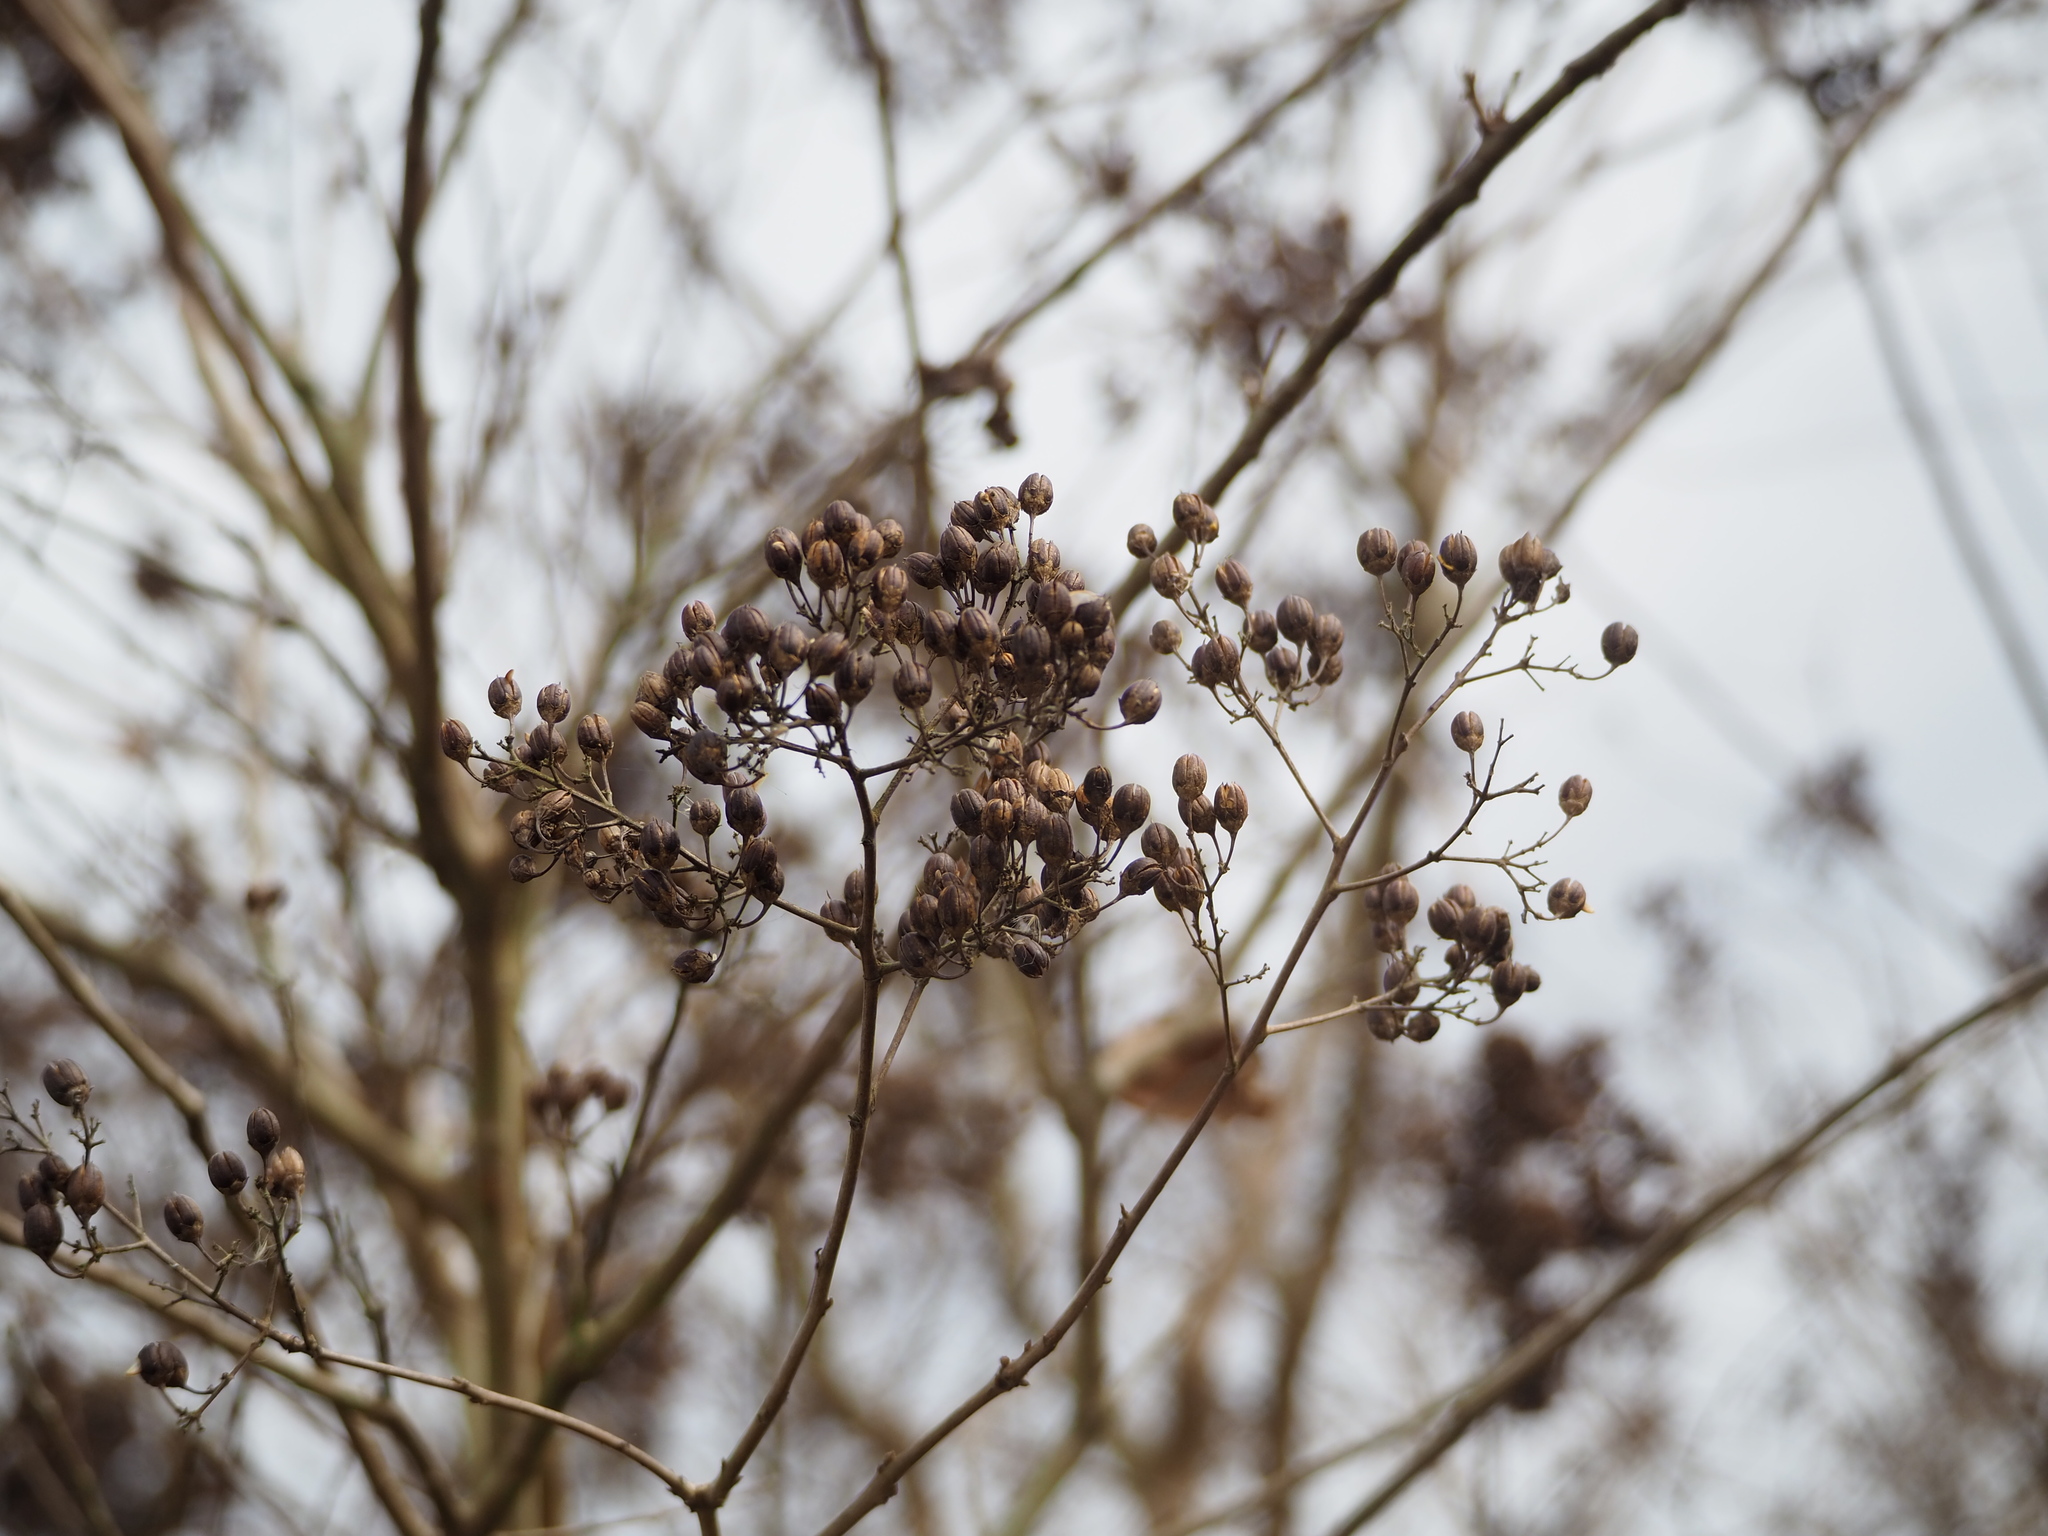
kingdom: Plantae
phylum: Tracheophyta
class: Magnoliopsida
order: Myrtales
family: Lythraceae
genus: Lagerstroemia
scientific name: Lagerstroemia subcostata
